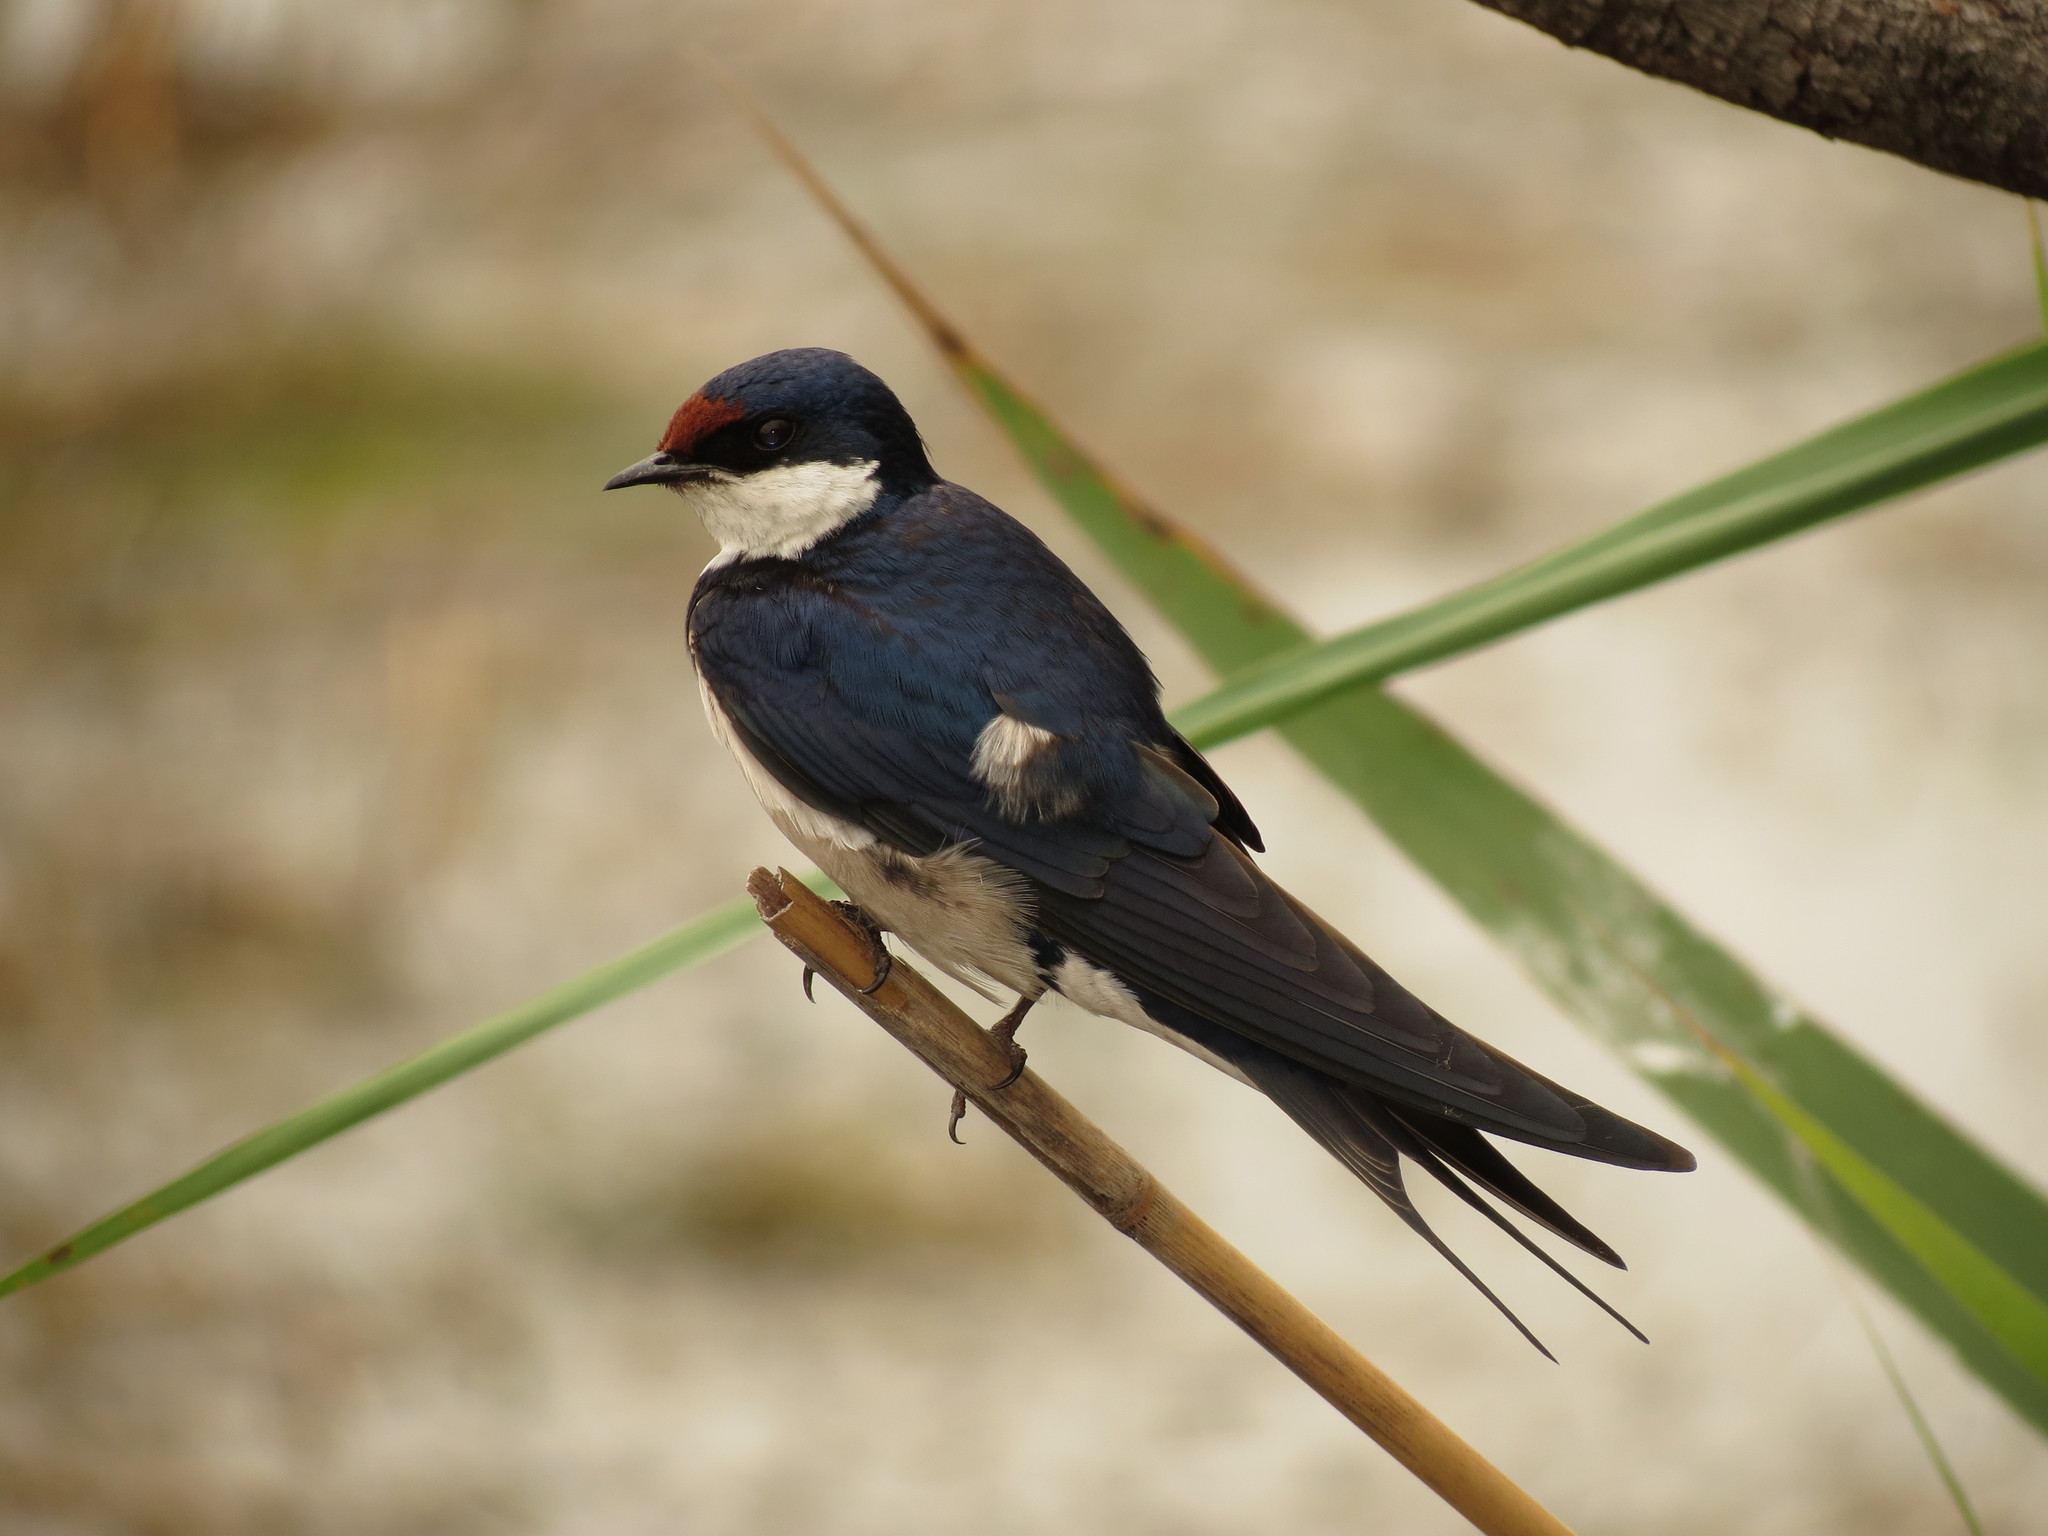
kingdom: Animalia
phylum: Chordata
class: Aves
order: Passeriformes
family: Hirundinidae
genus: Hirundo
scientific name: Hirundo albigularis
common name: White-throated swallow
